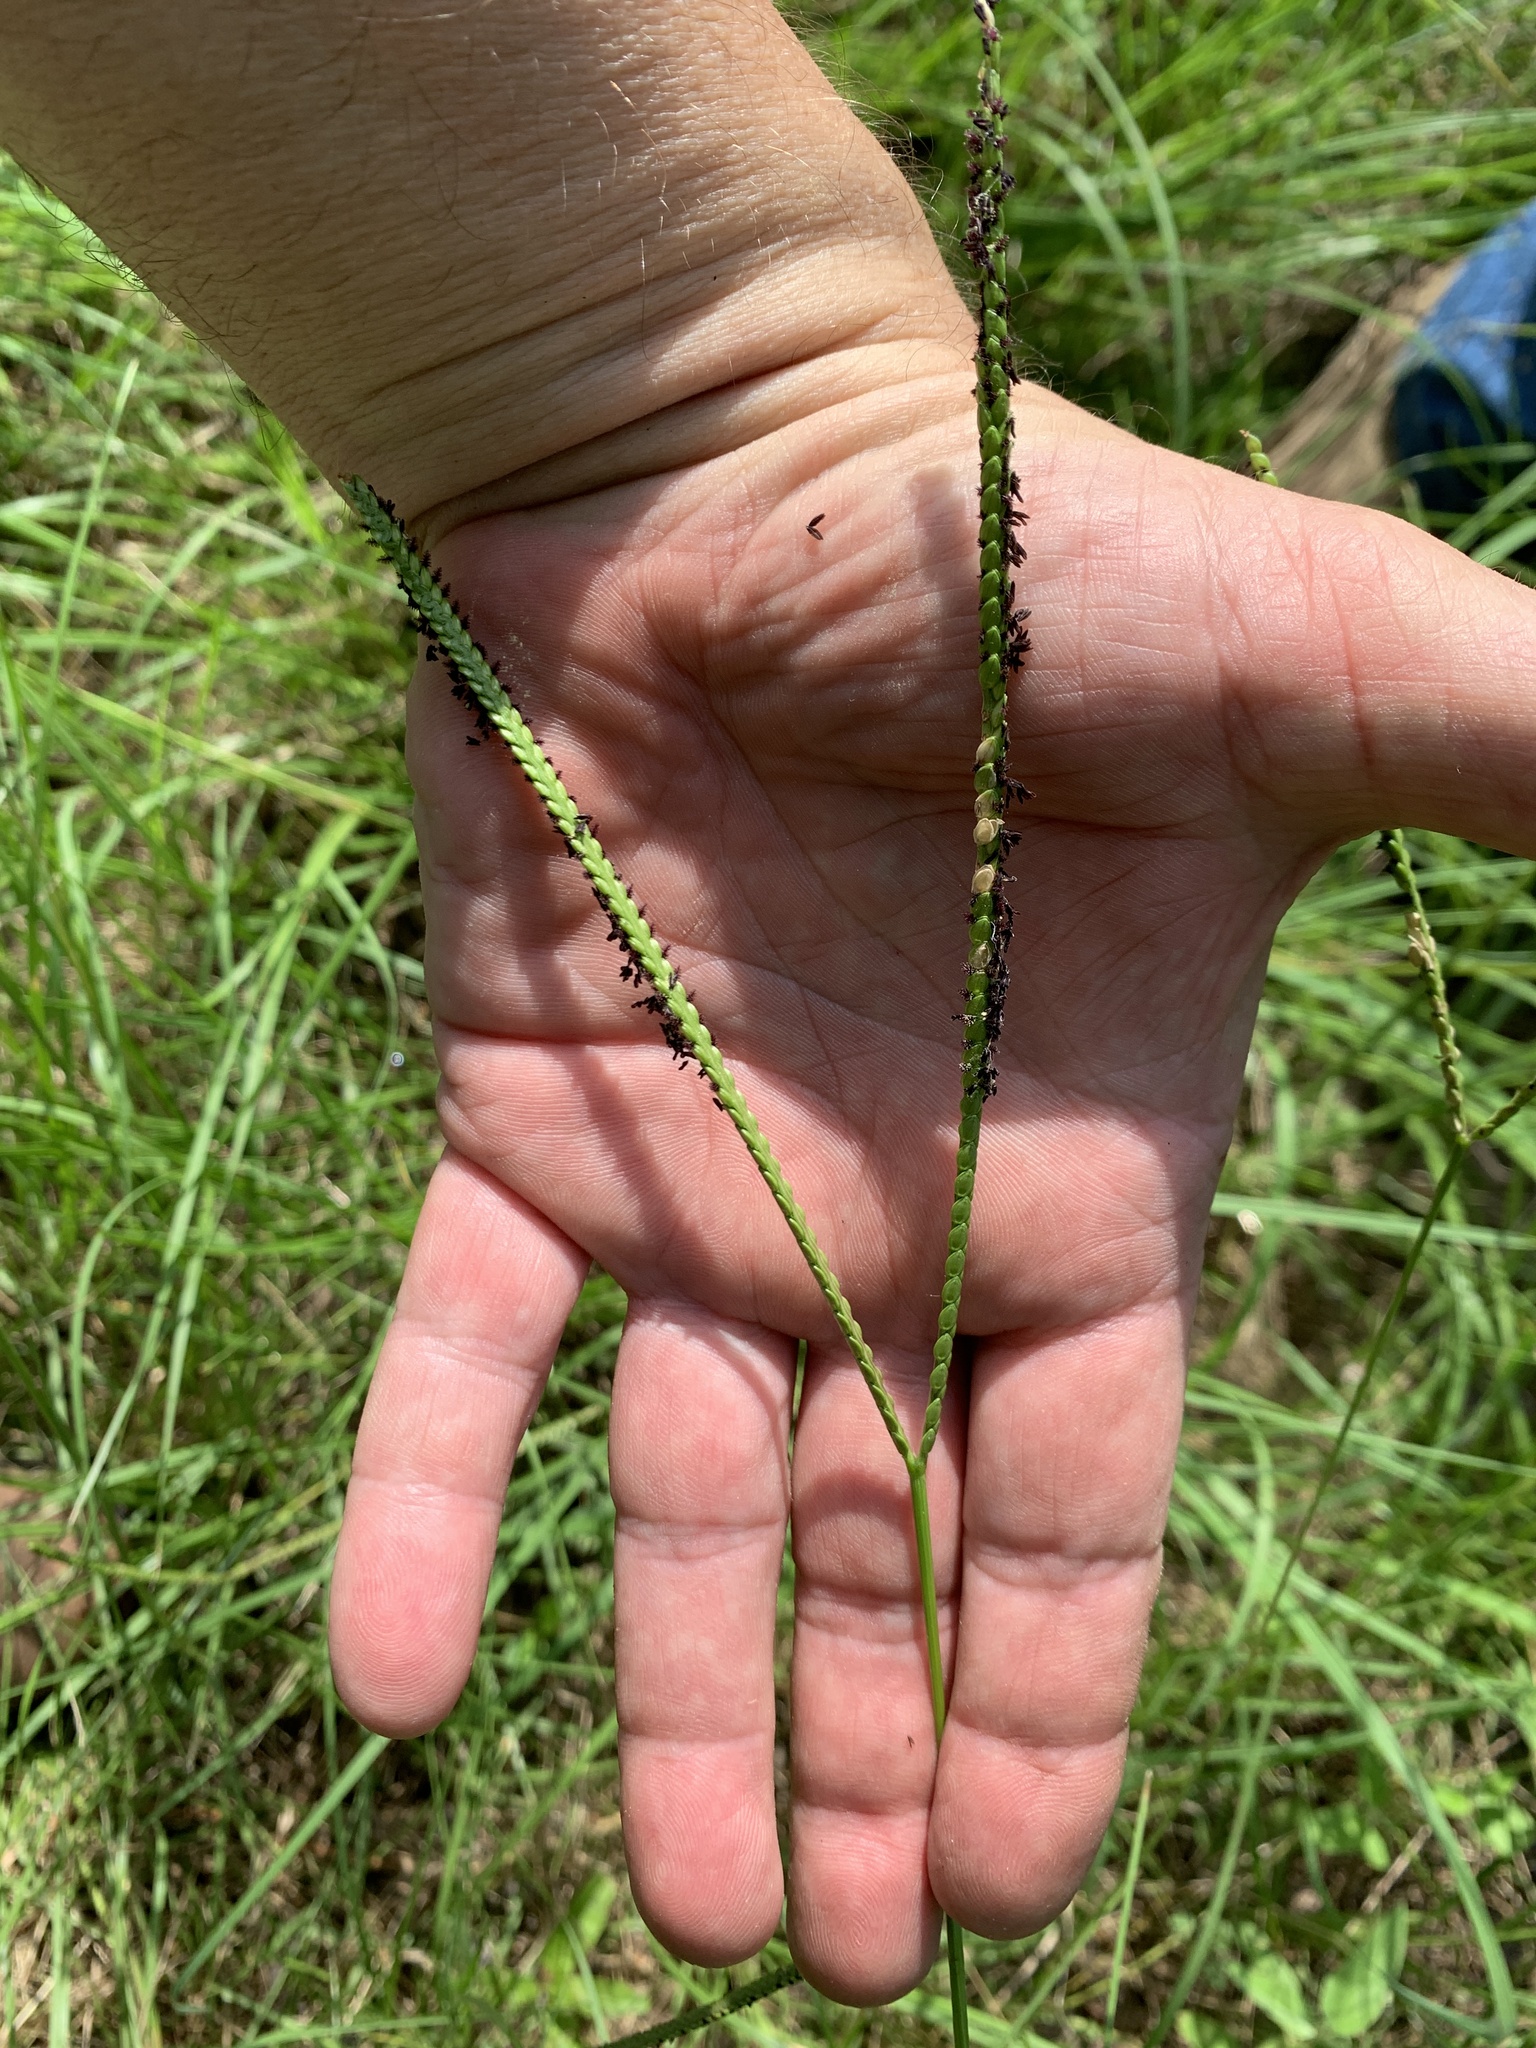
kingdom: Plantae
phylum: Tracheophyta
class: Liliopsida
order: Poales
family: Poaceae
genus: Paspalum
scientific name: Paspalum notatum
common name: Bahiagrass
